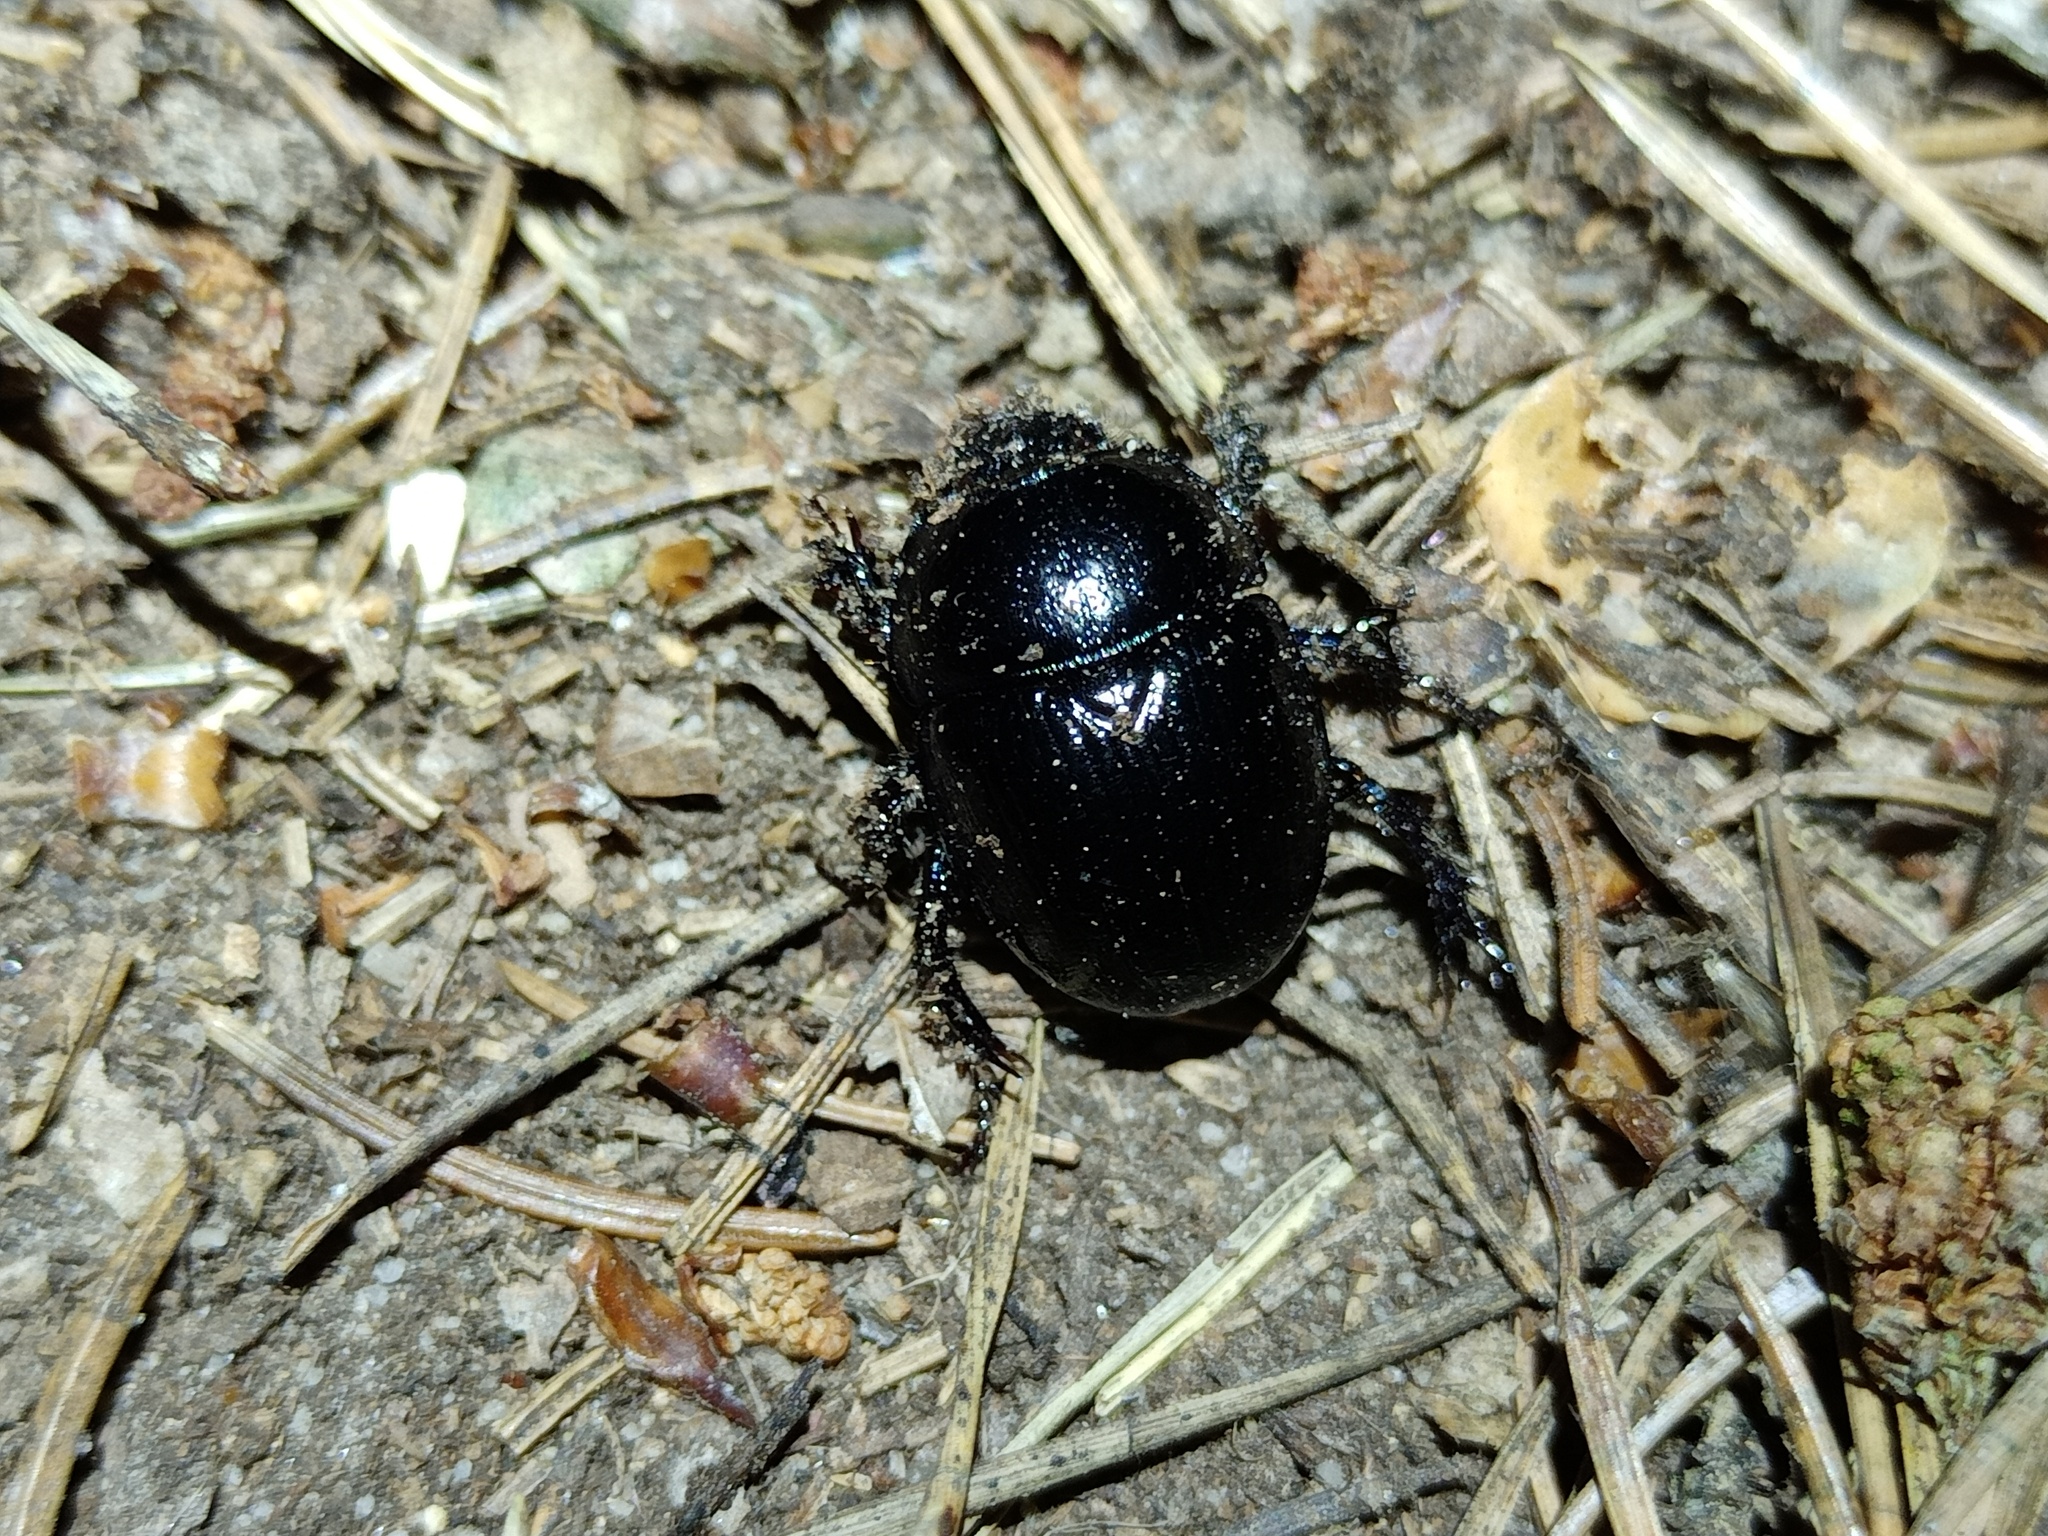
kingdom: Animalia
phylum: Arthropoda
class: Insecta
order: Coleoptera
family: Geotrupidae
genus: Anoplotrupes
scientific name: Anoplotrupes stercorosus
